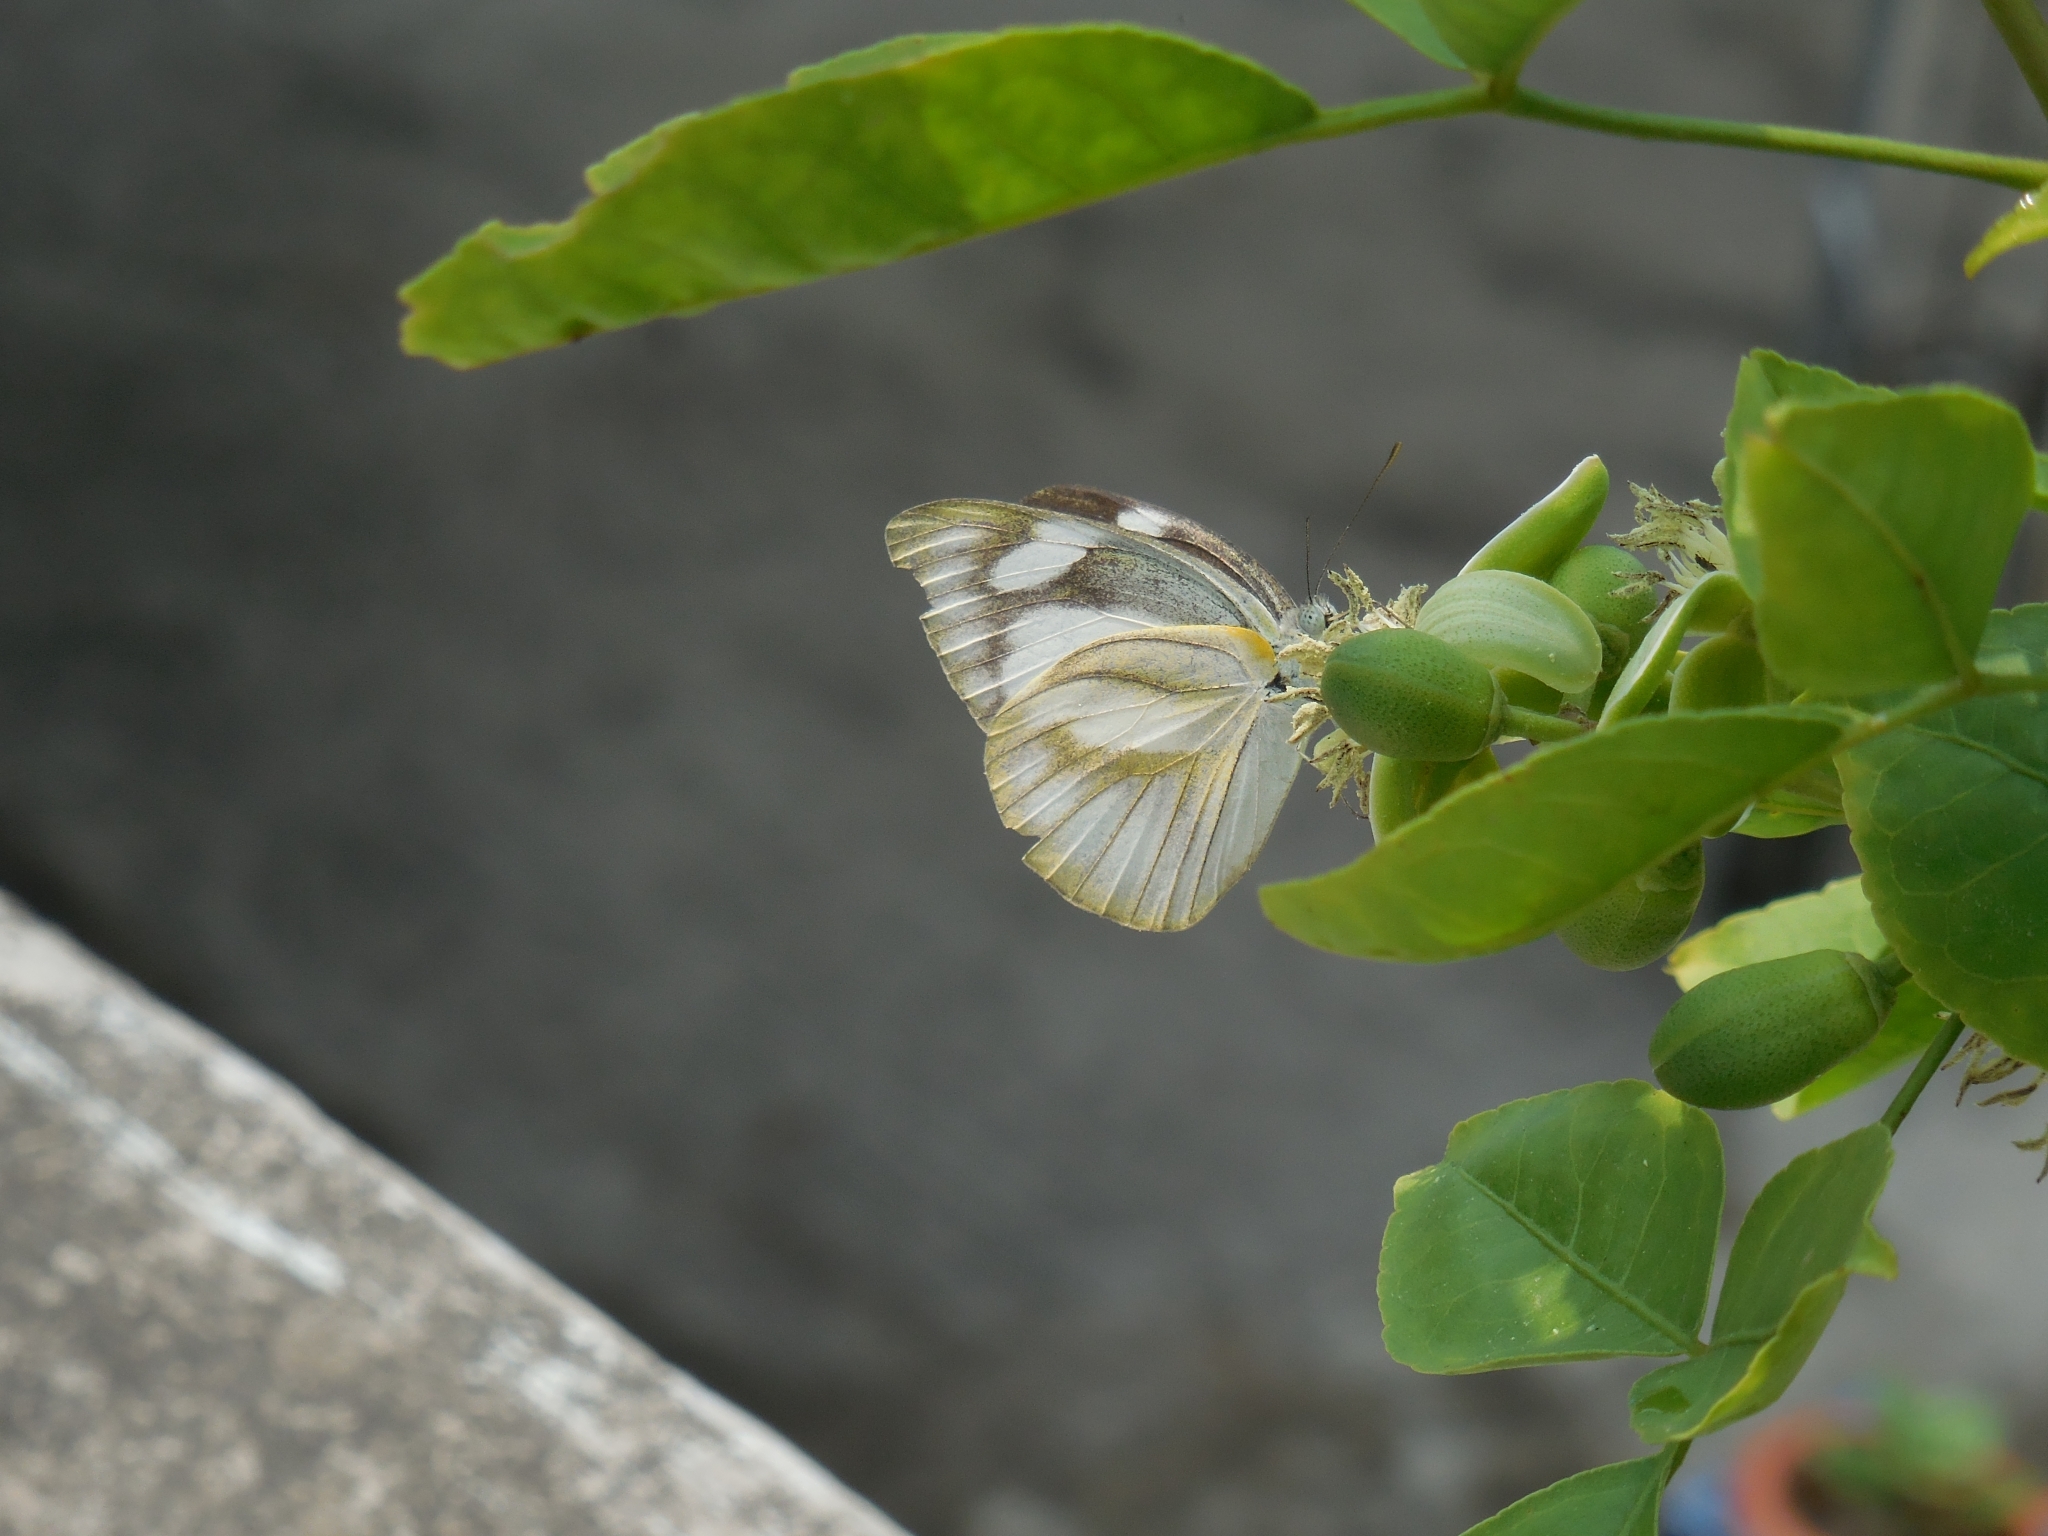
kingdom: Animalia
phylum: Arthropoda
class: Insecta
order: Lepidoptera
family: Pieridae
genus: Appias
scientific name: Appias libythea
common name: Striped albatross
